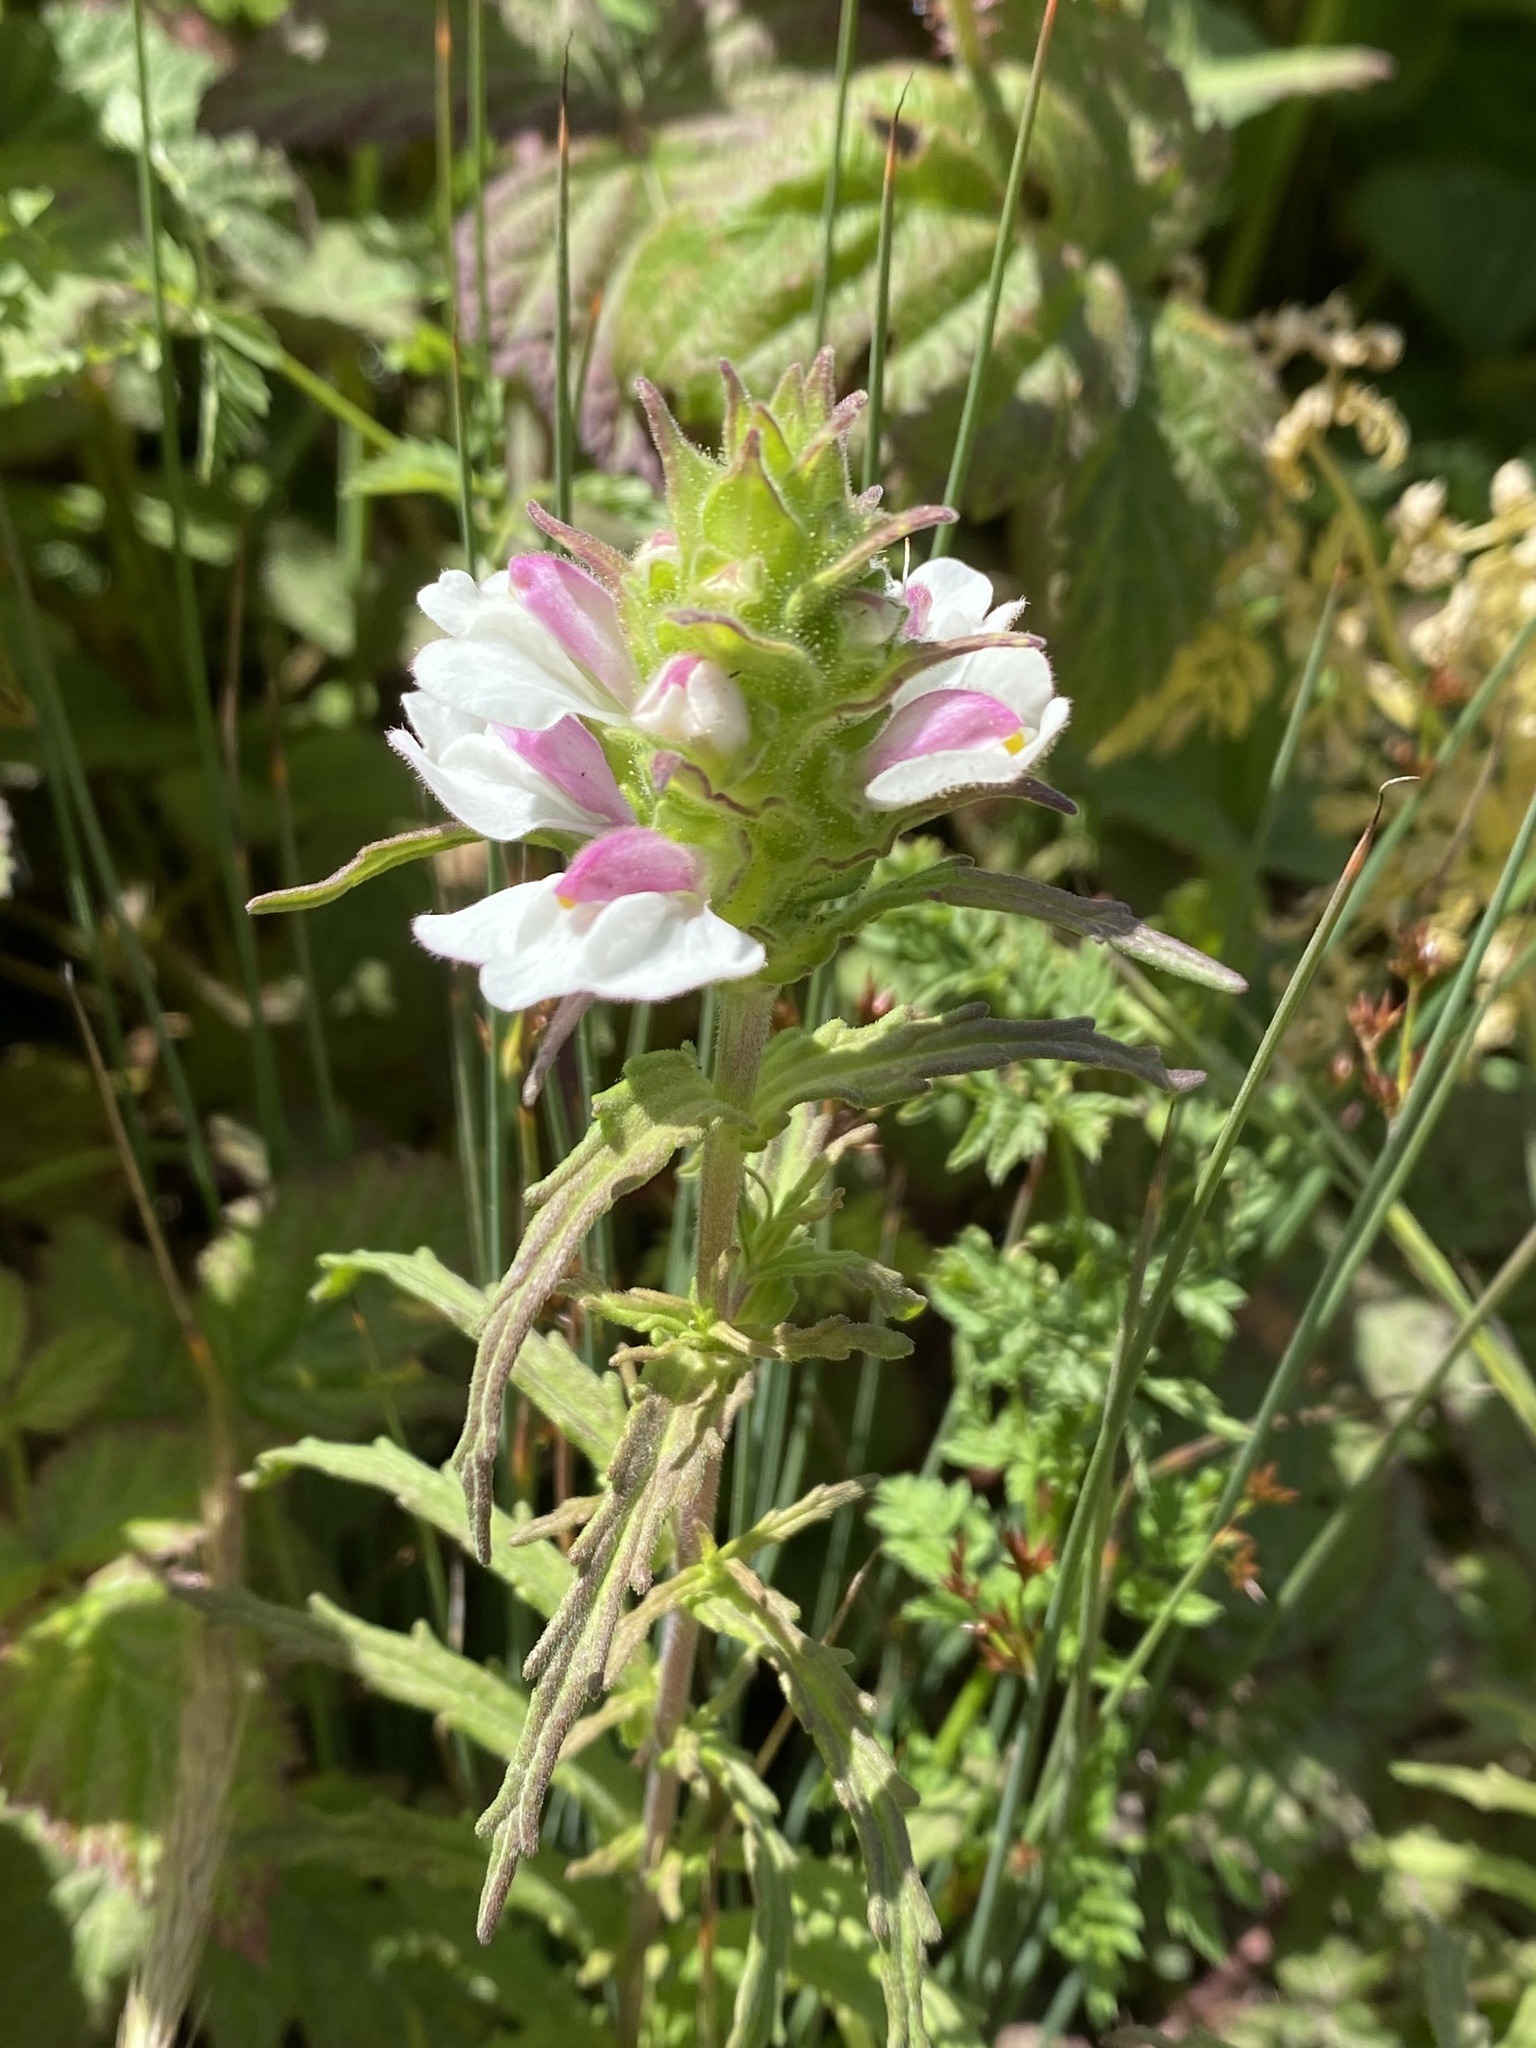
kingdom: Plantae
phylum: Tracheophyta
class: Magnoliopsida
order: Lamiales
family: Orobanchaceae
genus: Bellardia
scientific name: Bellardia trixago
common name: Mediterranean lineseed
